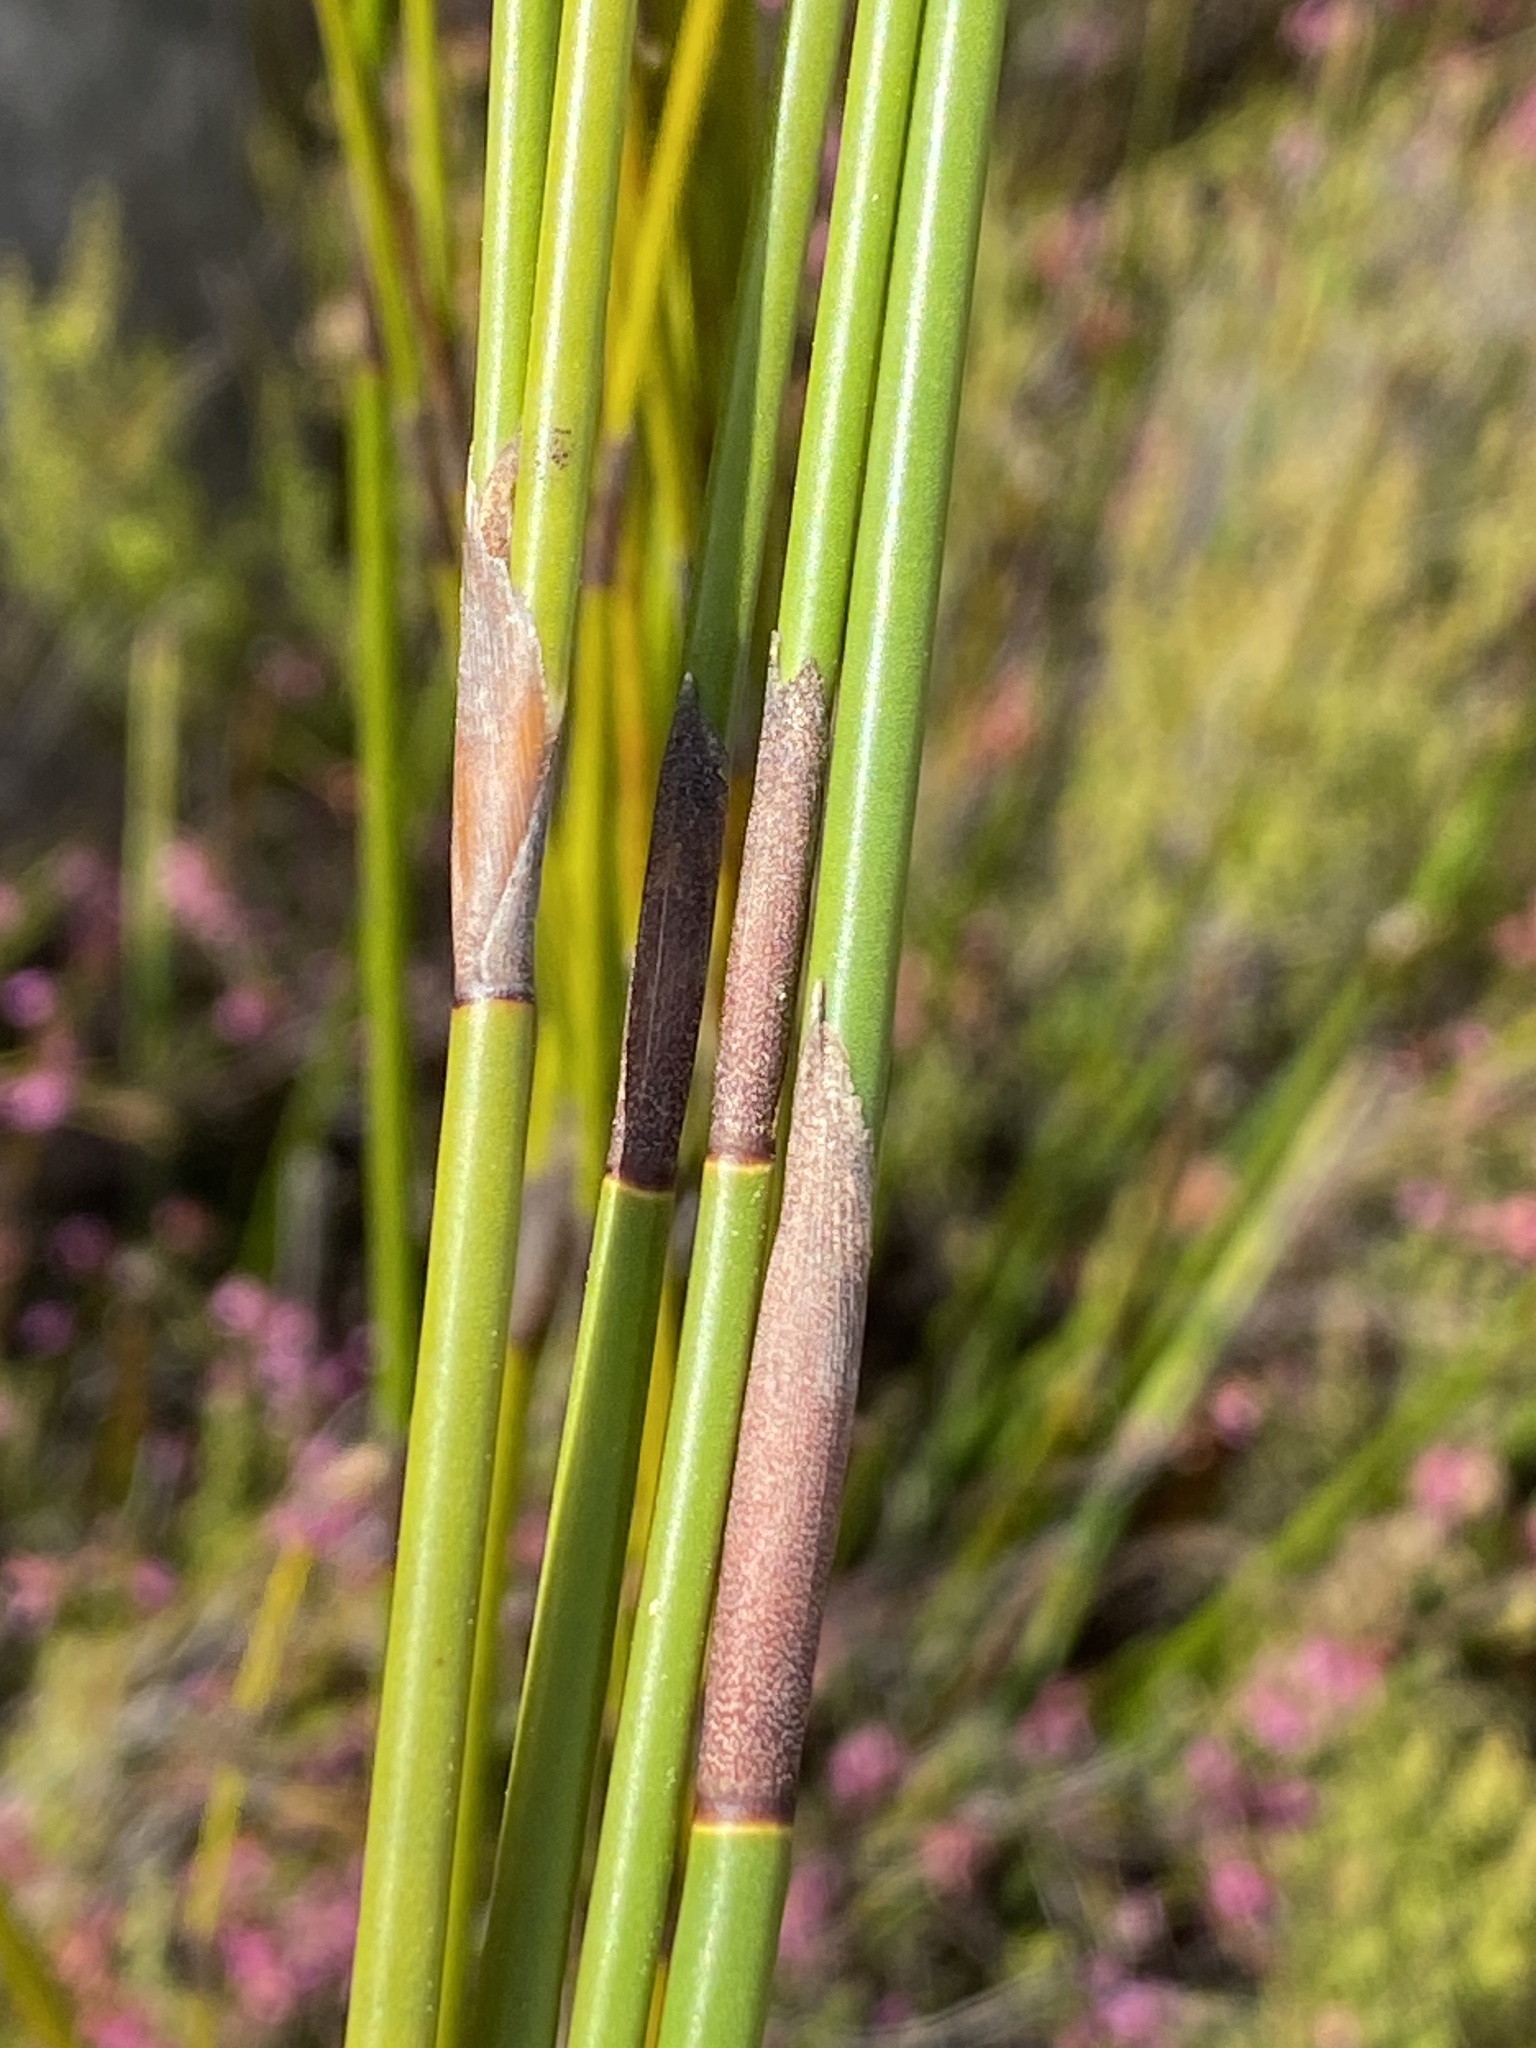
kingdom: Plantae
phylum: Tracheophyta
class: Liliopsida
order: Poales
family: Restionaceae
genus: Restio
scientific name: Restio triticeus
